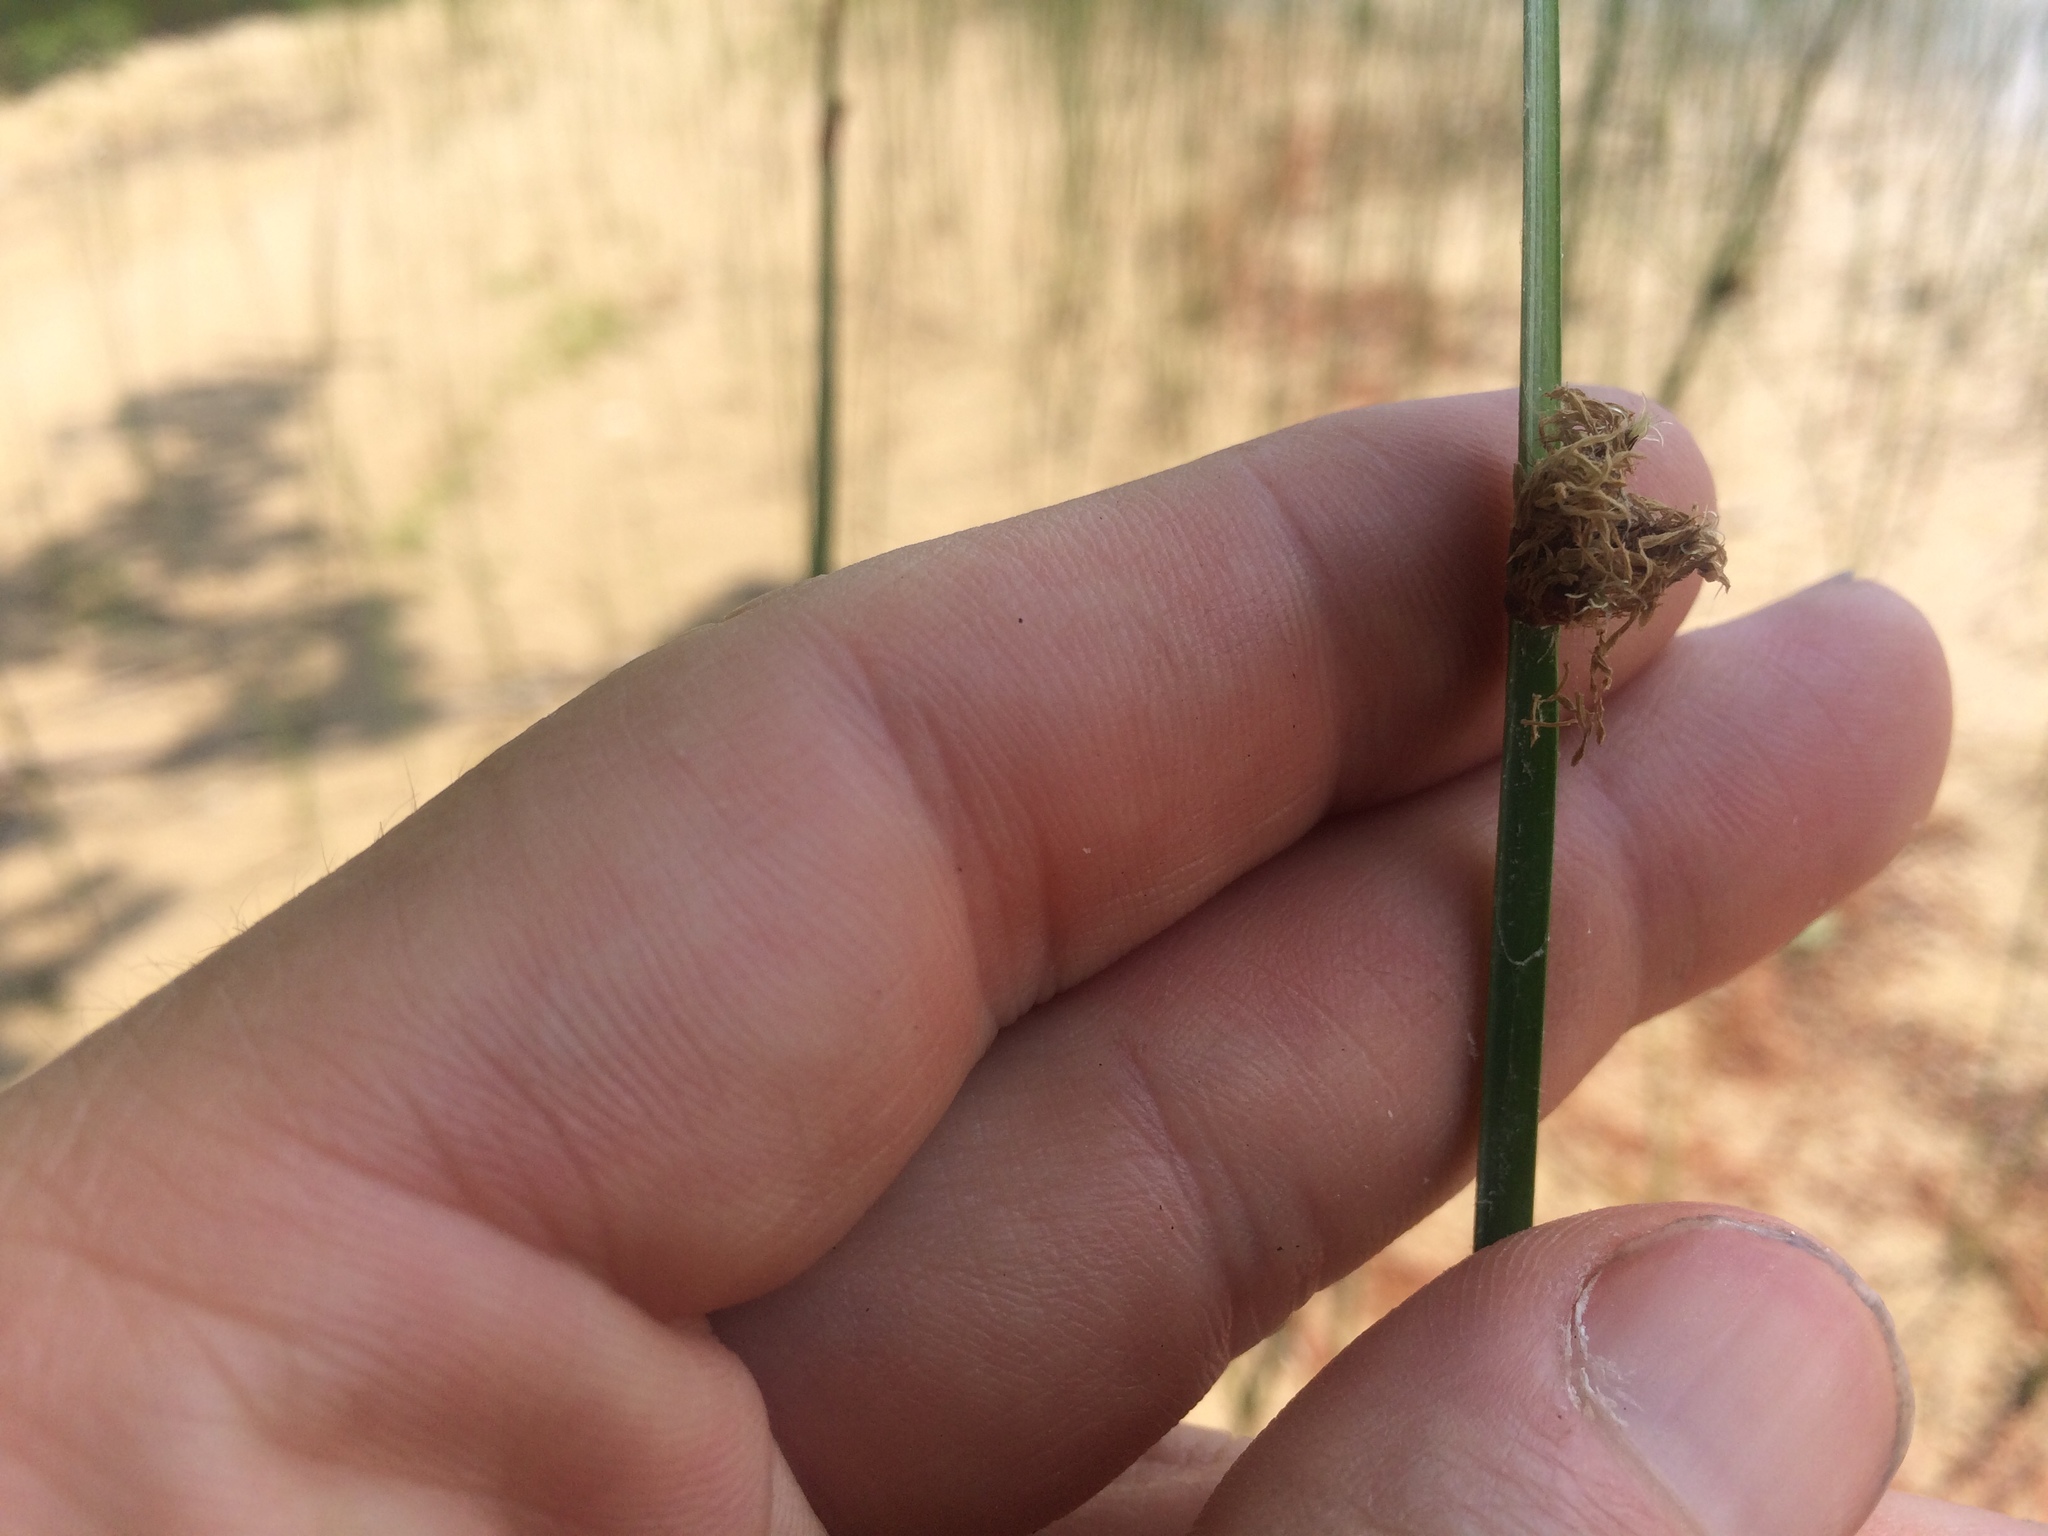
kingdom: Plantae
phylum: Tracheophyta
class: Liliopsida
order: Poales
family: Cyperaceae
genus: Schoenoplectus
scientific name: Schoenoplectus pungens
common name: Sharp club-rush
